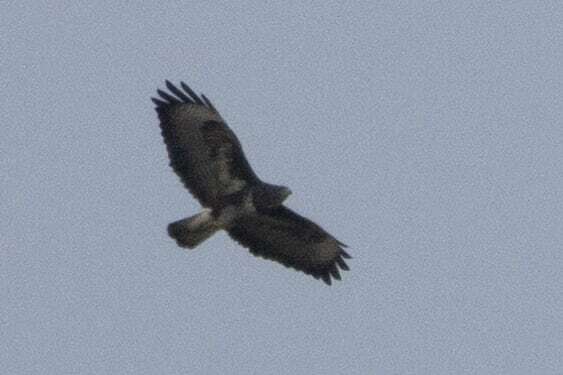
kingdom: Animalia
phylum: Chordata
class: Aves
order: Accipitriformes
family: Accipitridae
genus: Buteo
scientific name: Buteo buteo
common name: Common buzzard
